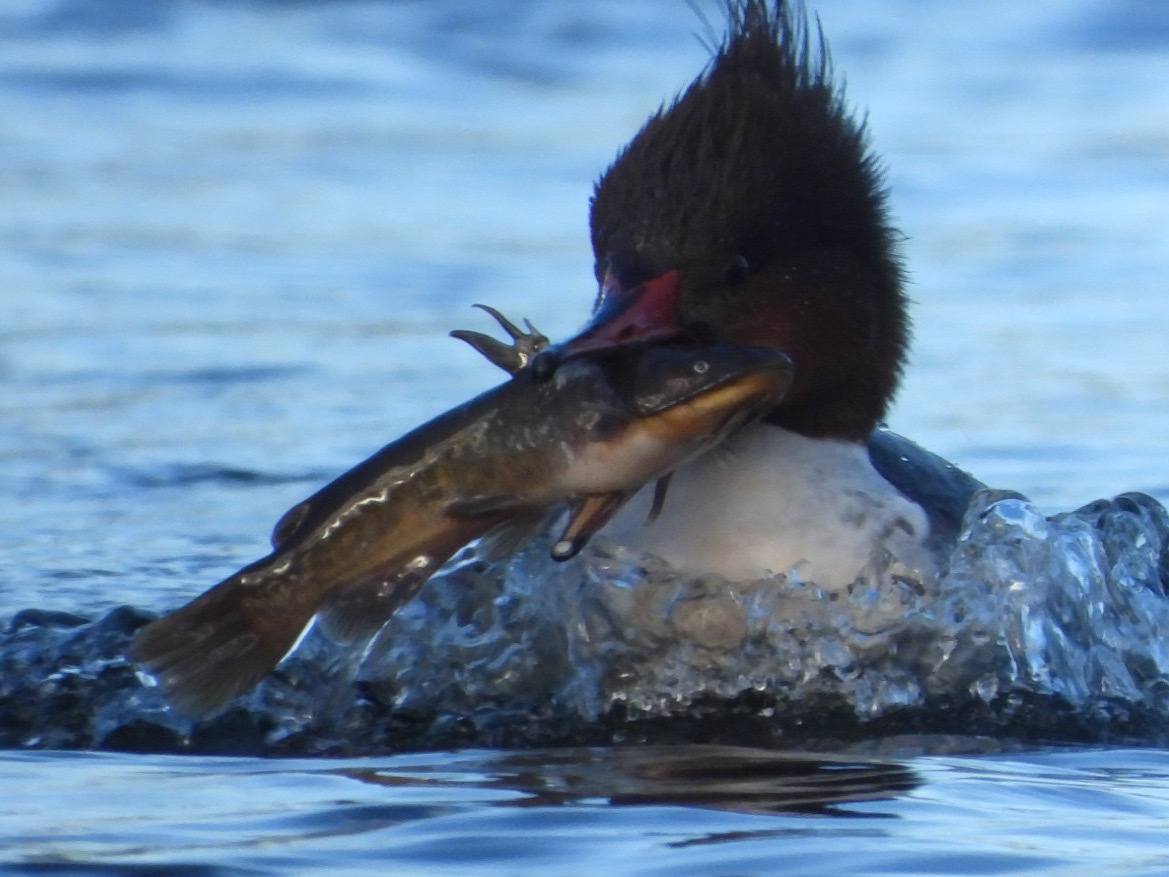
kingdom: Animalia
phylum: Chordata
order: Siluriformes
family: Ictaluridae
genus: Ameiurus
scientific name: Ameiurus nebulosus
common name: Brown bullhead
